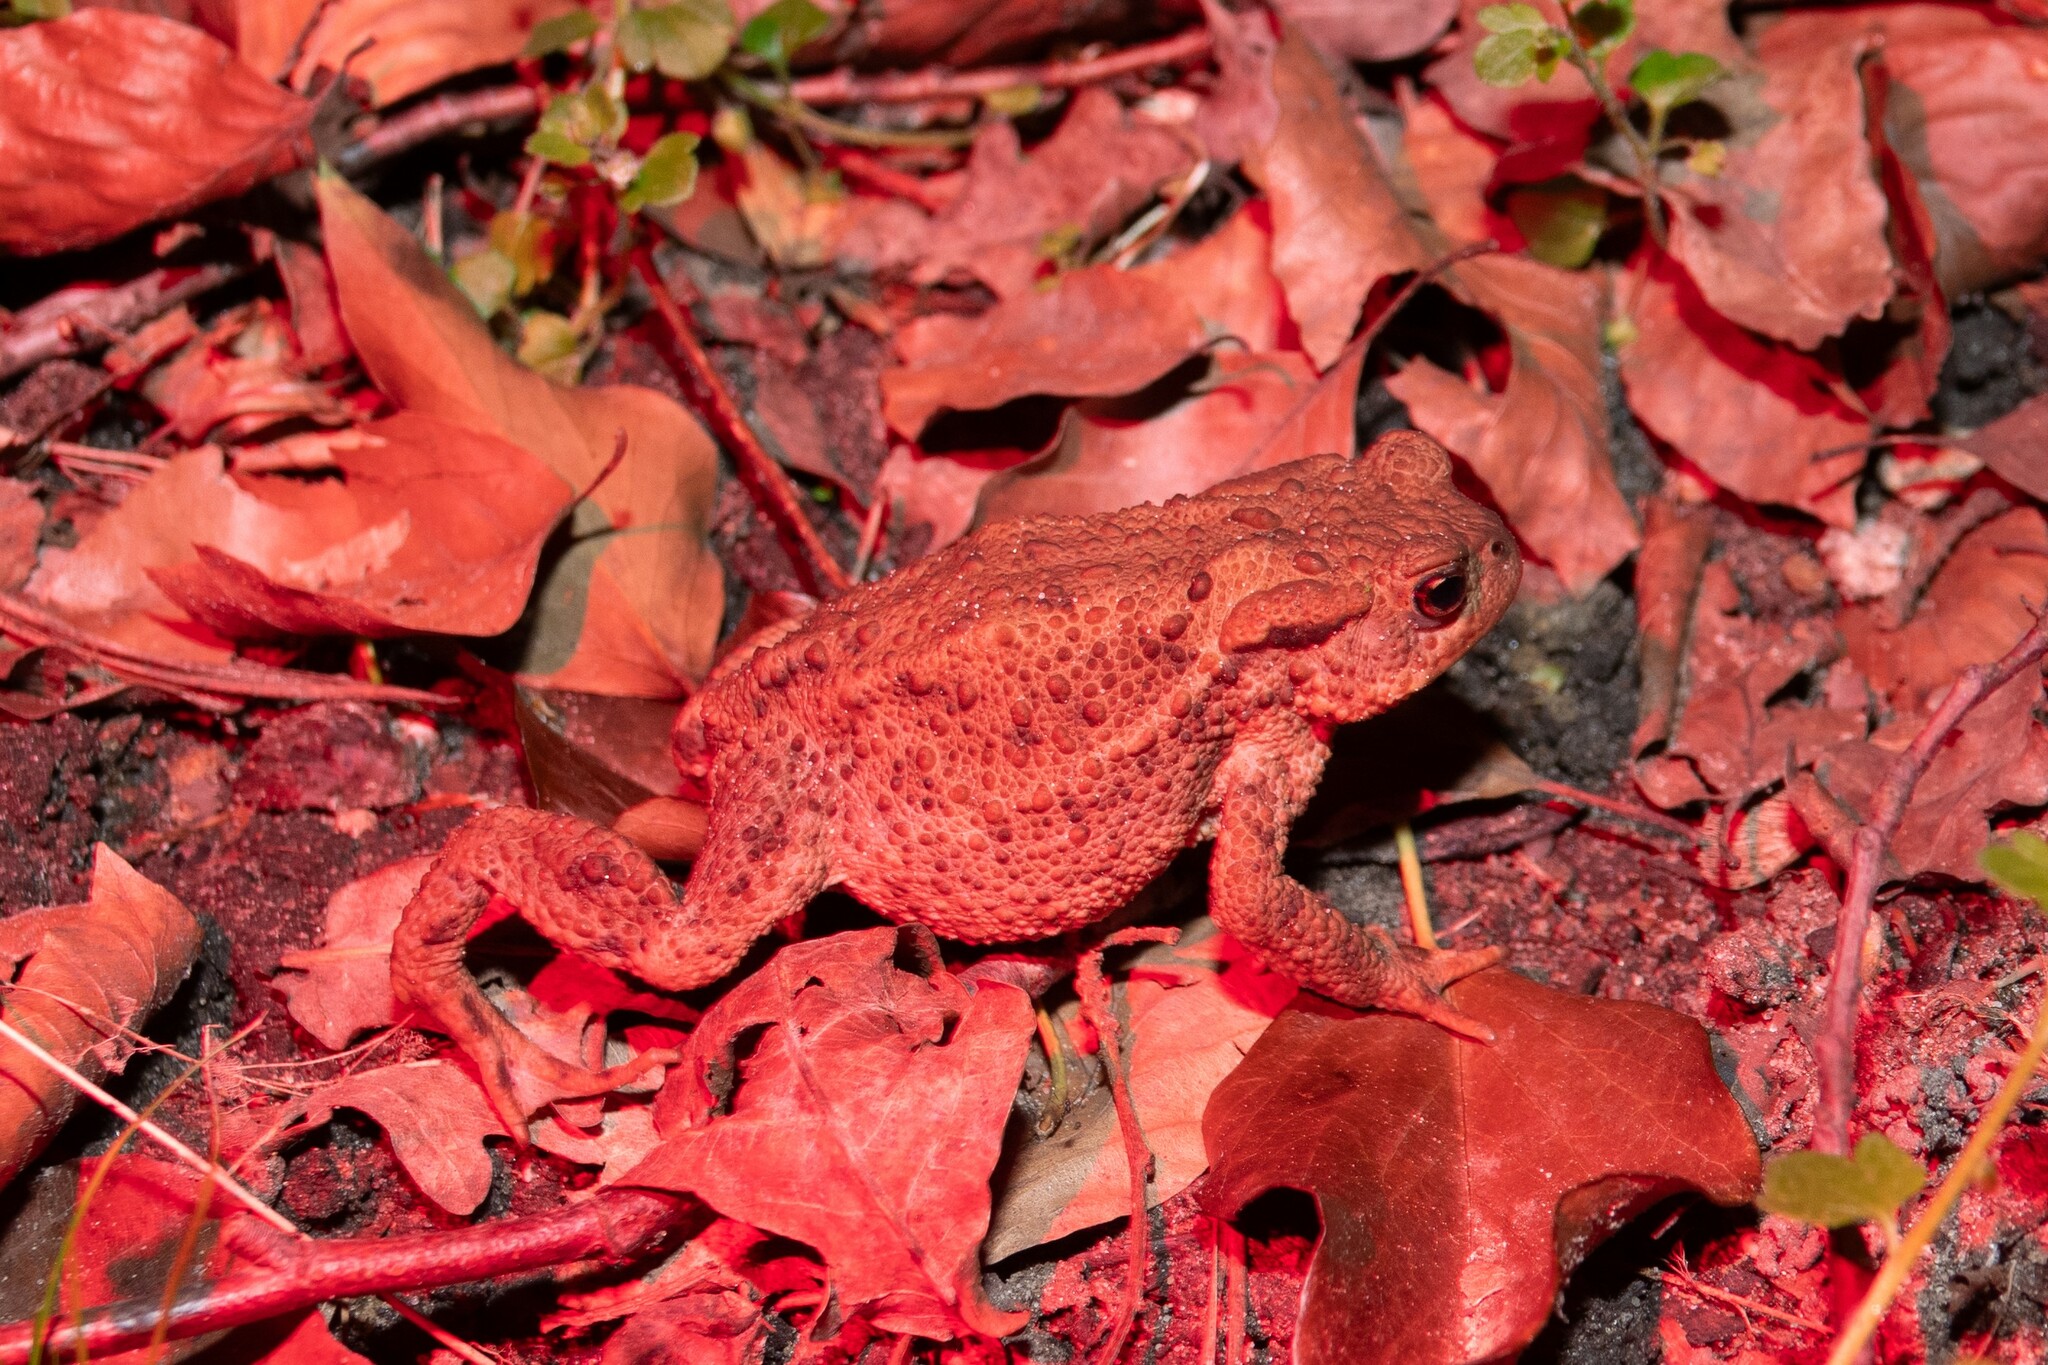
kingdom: Animalia
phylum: Chordata
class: Amphibia
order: Anura
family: Bufonidae
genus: Bufo
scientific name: Bufo bufo
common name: Common toad
